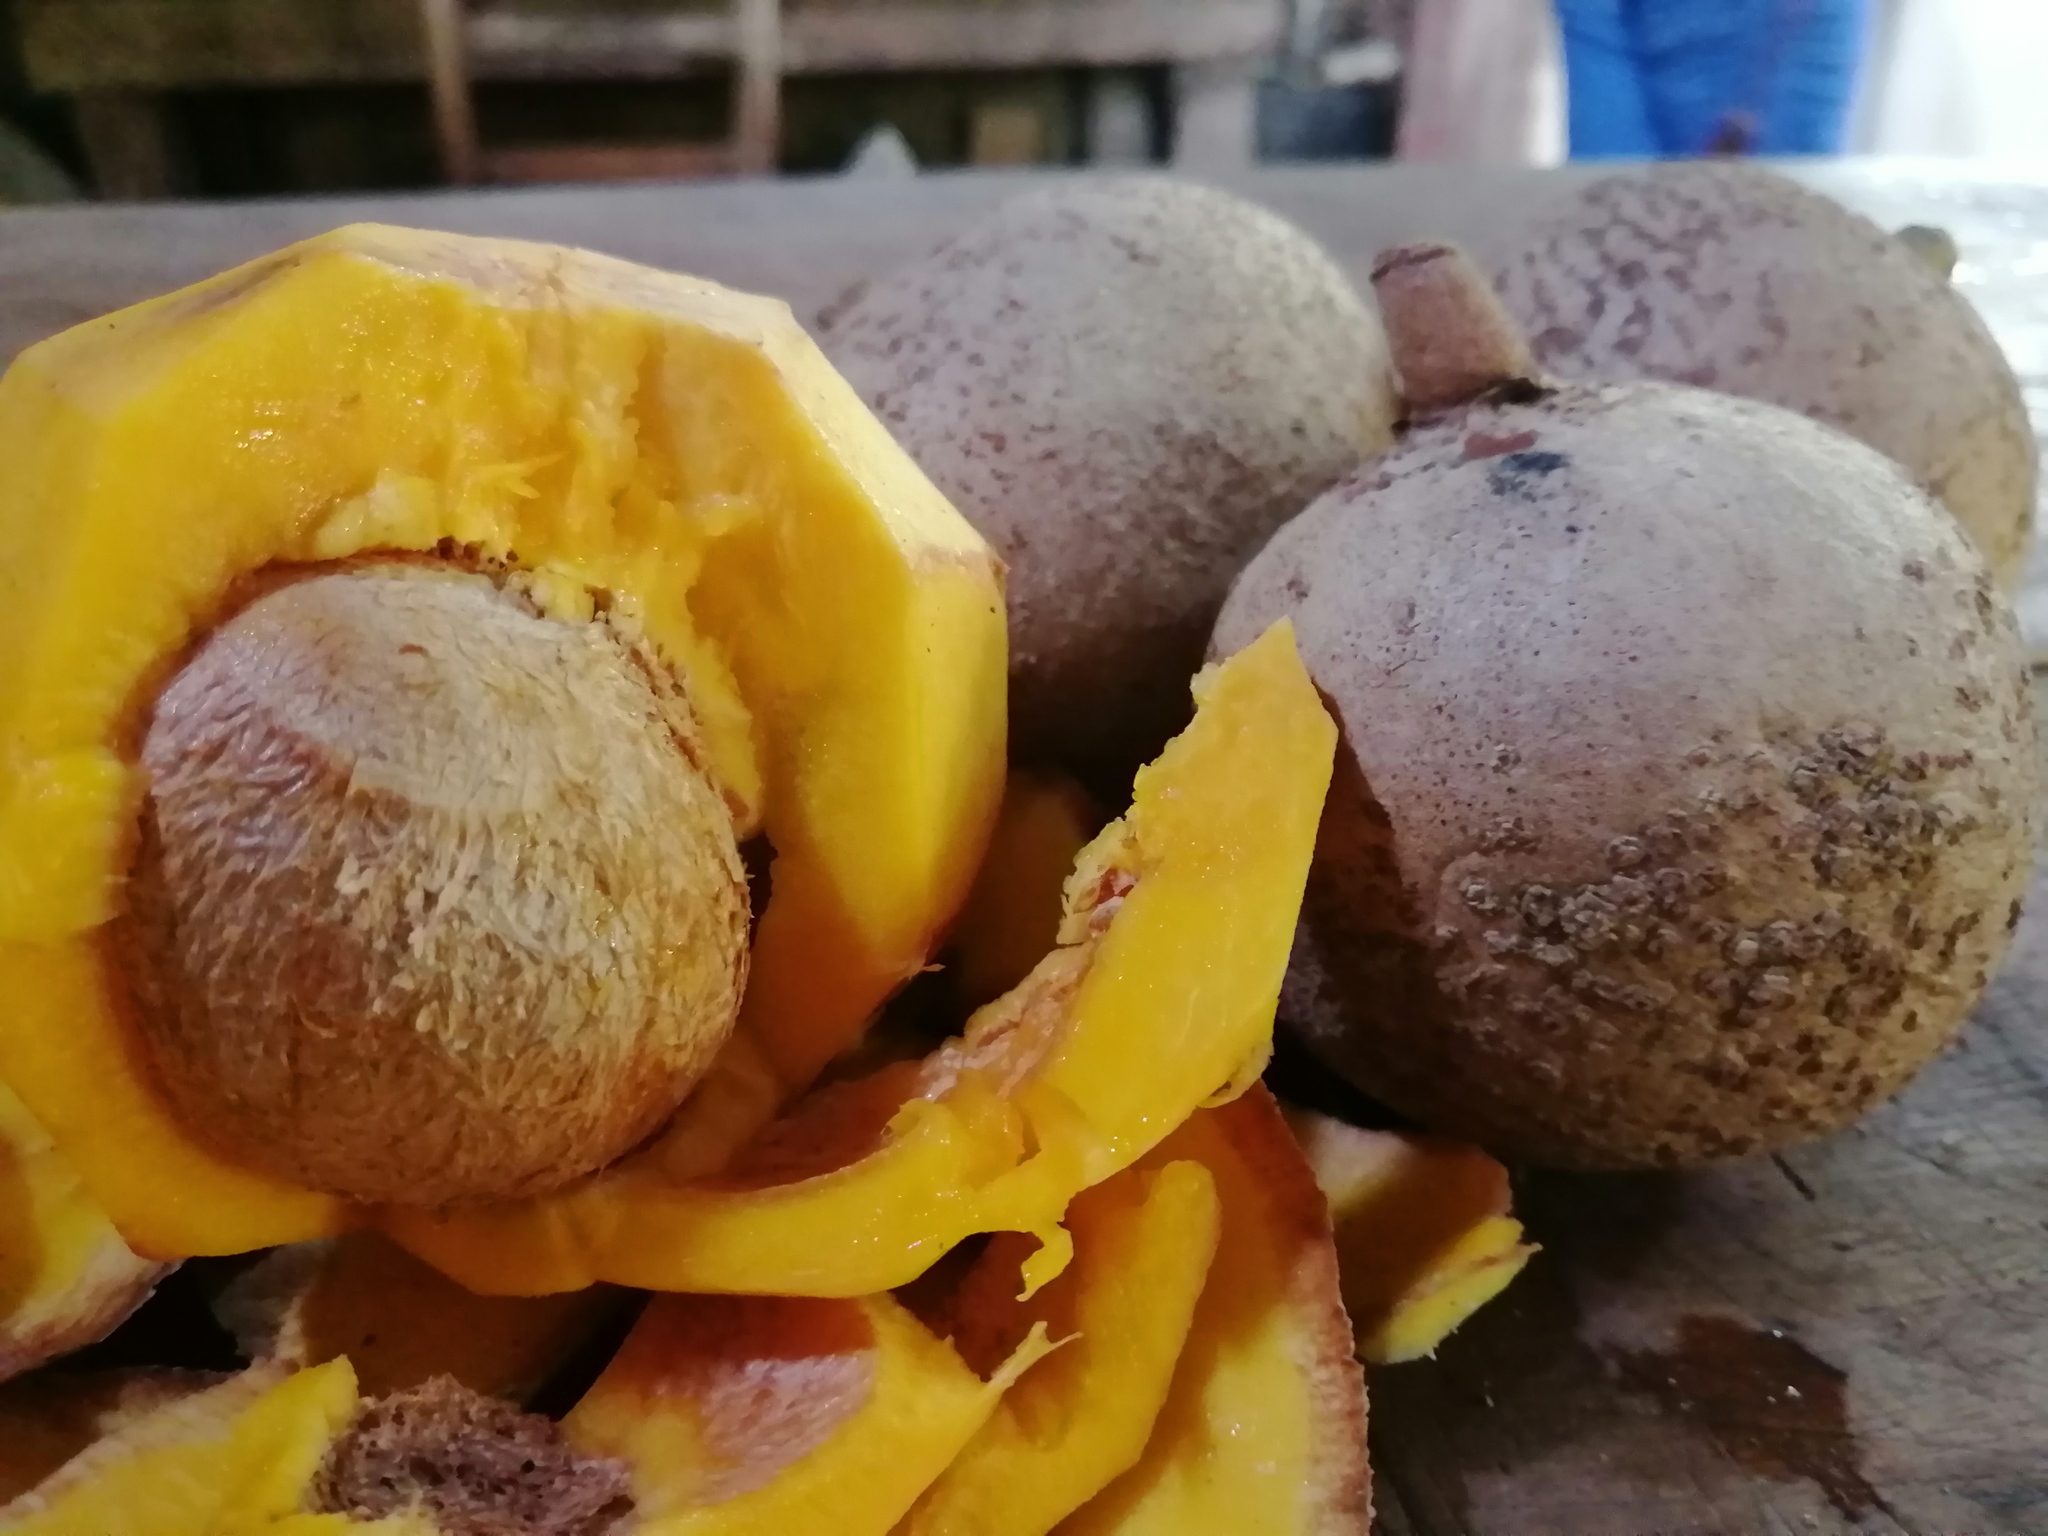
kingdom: Plantae
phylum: Tracheophyta
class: Magnoliopsida
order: Malpighiales
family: Calophyllaceae
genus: Mammea
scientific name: Mammea americana
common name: Mamey
